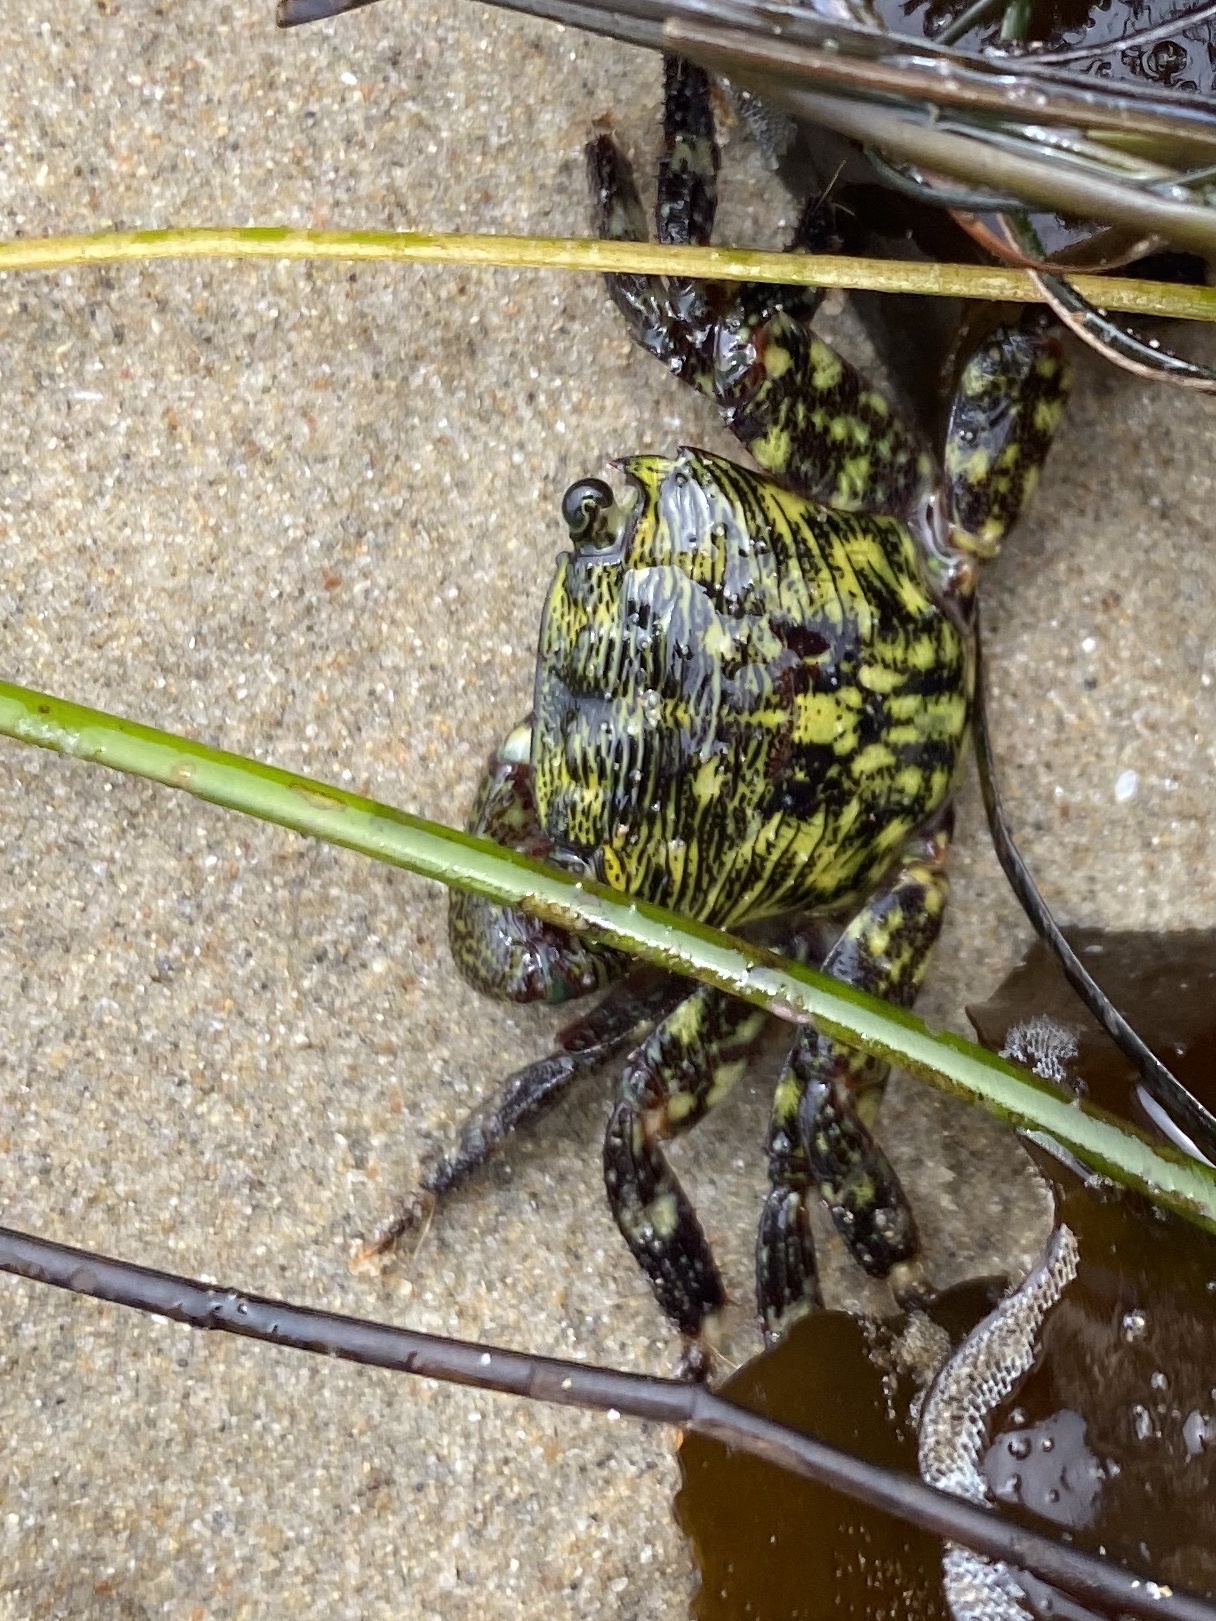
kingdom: Animalia
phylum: Arthropoda
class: Malacostraca
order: Decapoda
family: Grapsidae
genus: Pachygrapsus
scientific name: Pachygrapsus crassipes
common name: Striped shore crab
